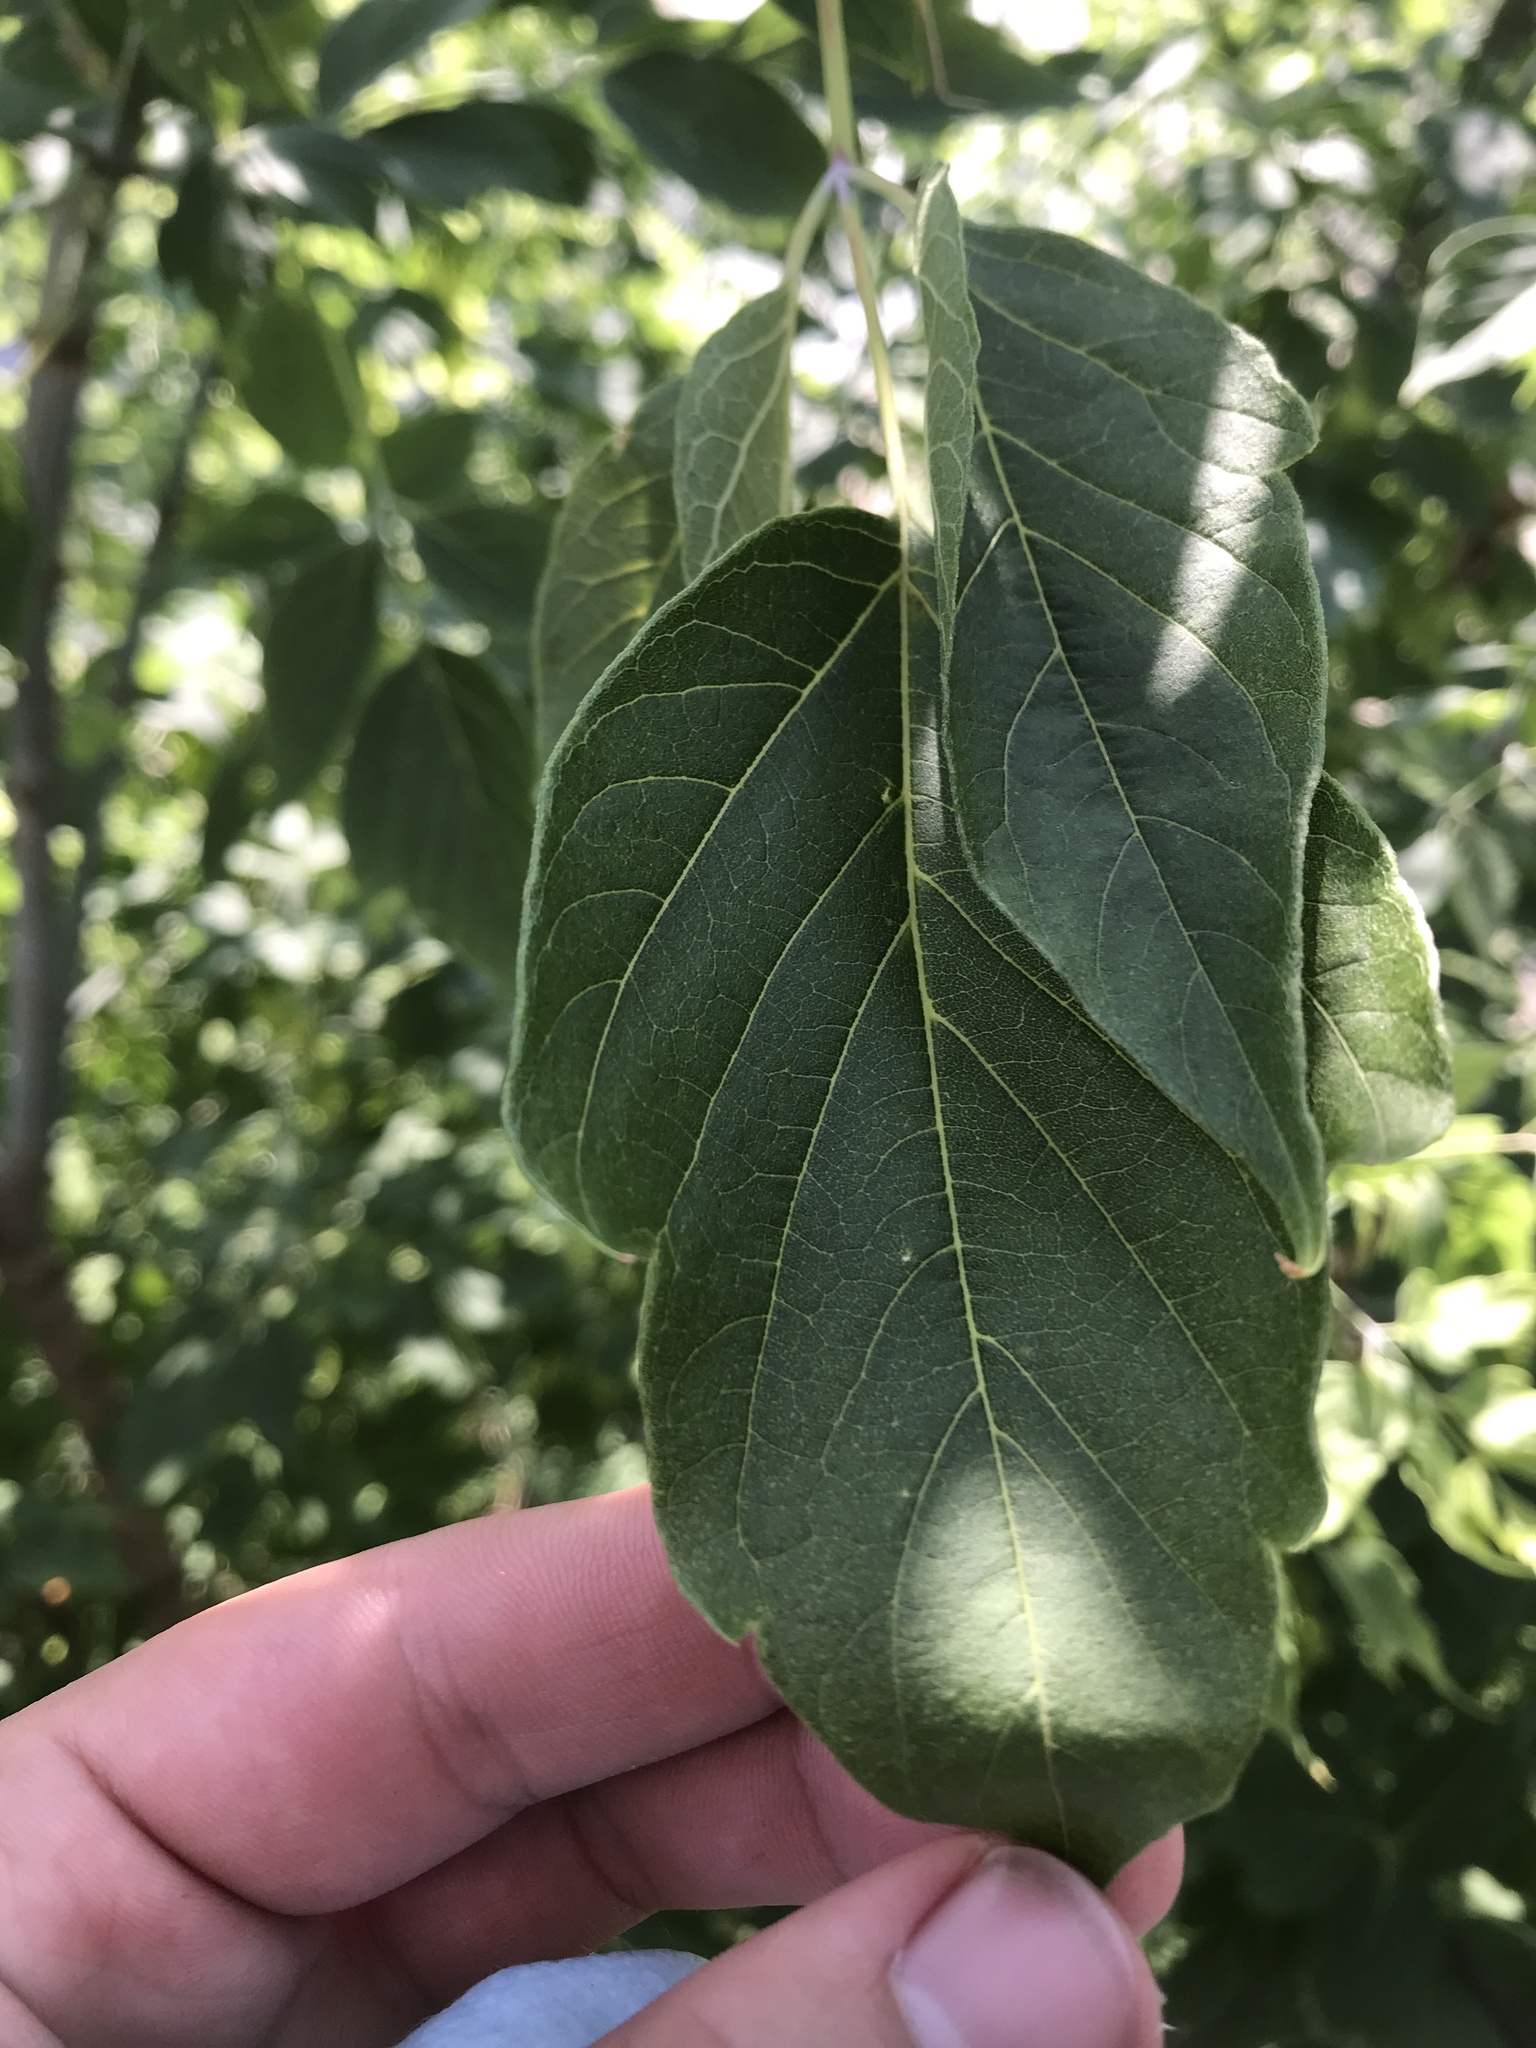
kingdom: Plantae
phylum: Tracheophyta
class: Magnoliopsida
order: Sapindales
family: Sapindaceae
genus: Acer
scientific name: Acer negundo
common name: Ashleaf maple
